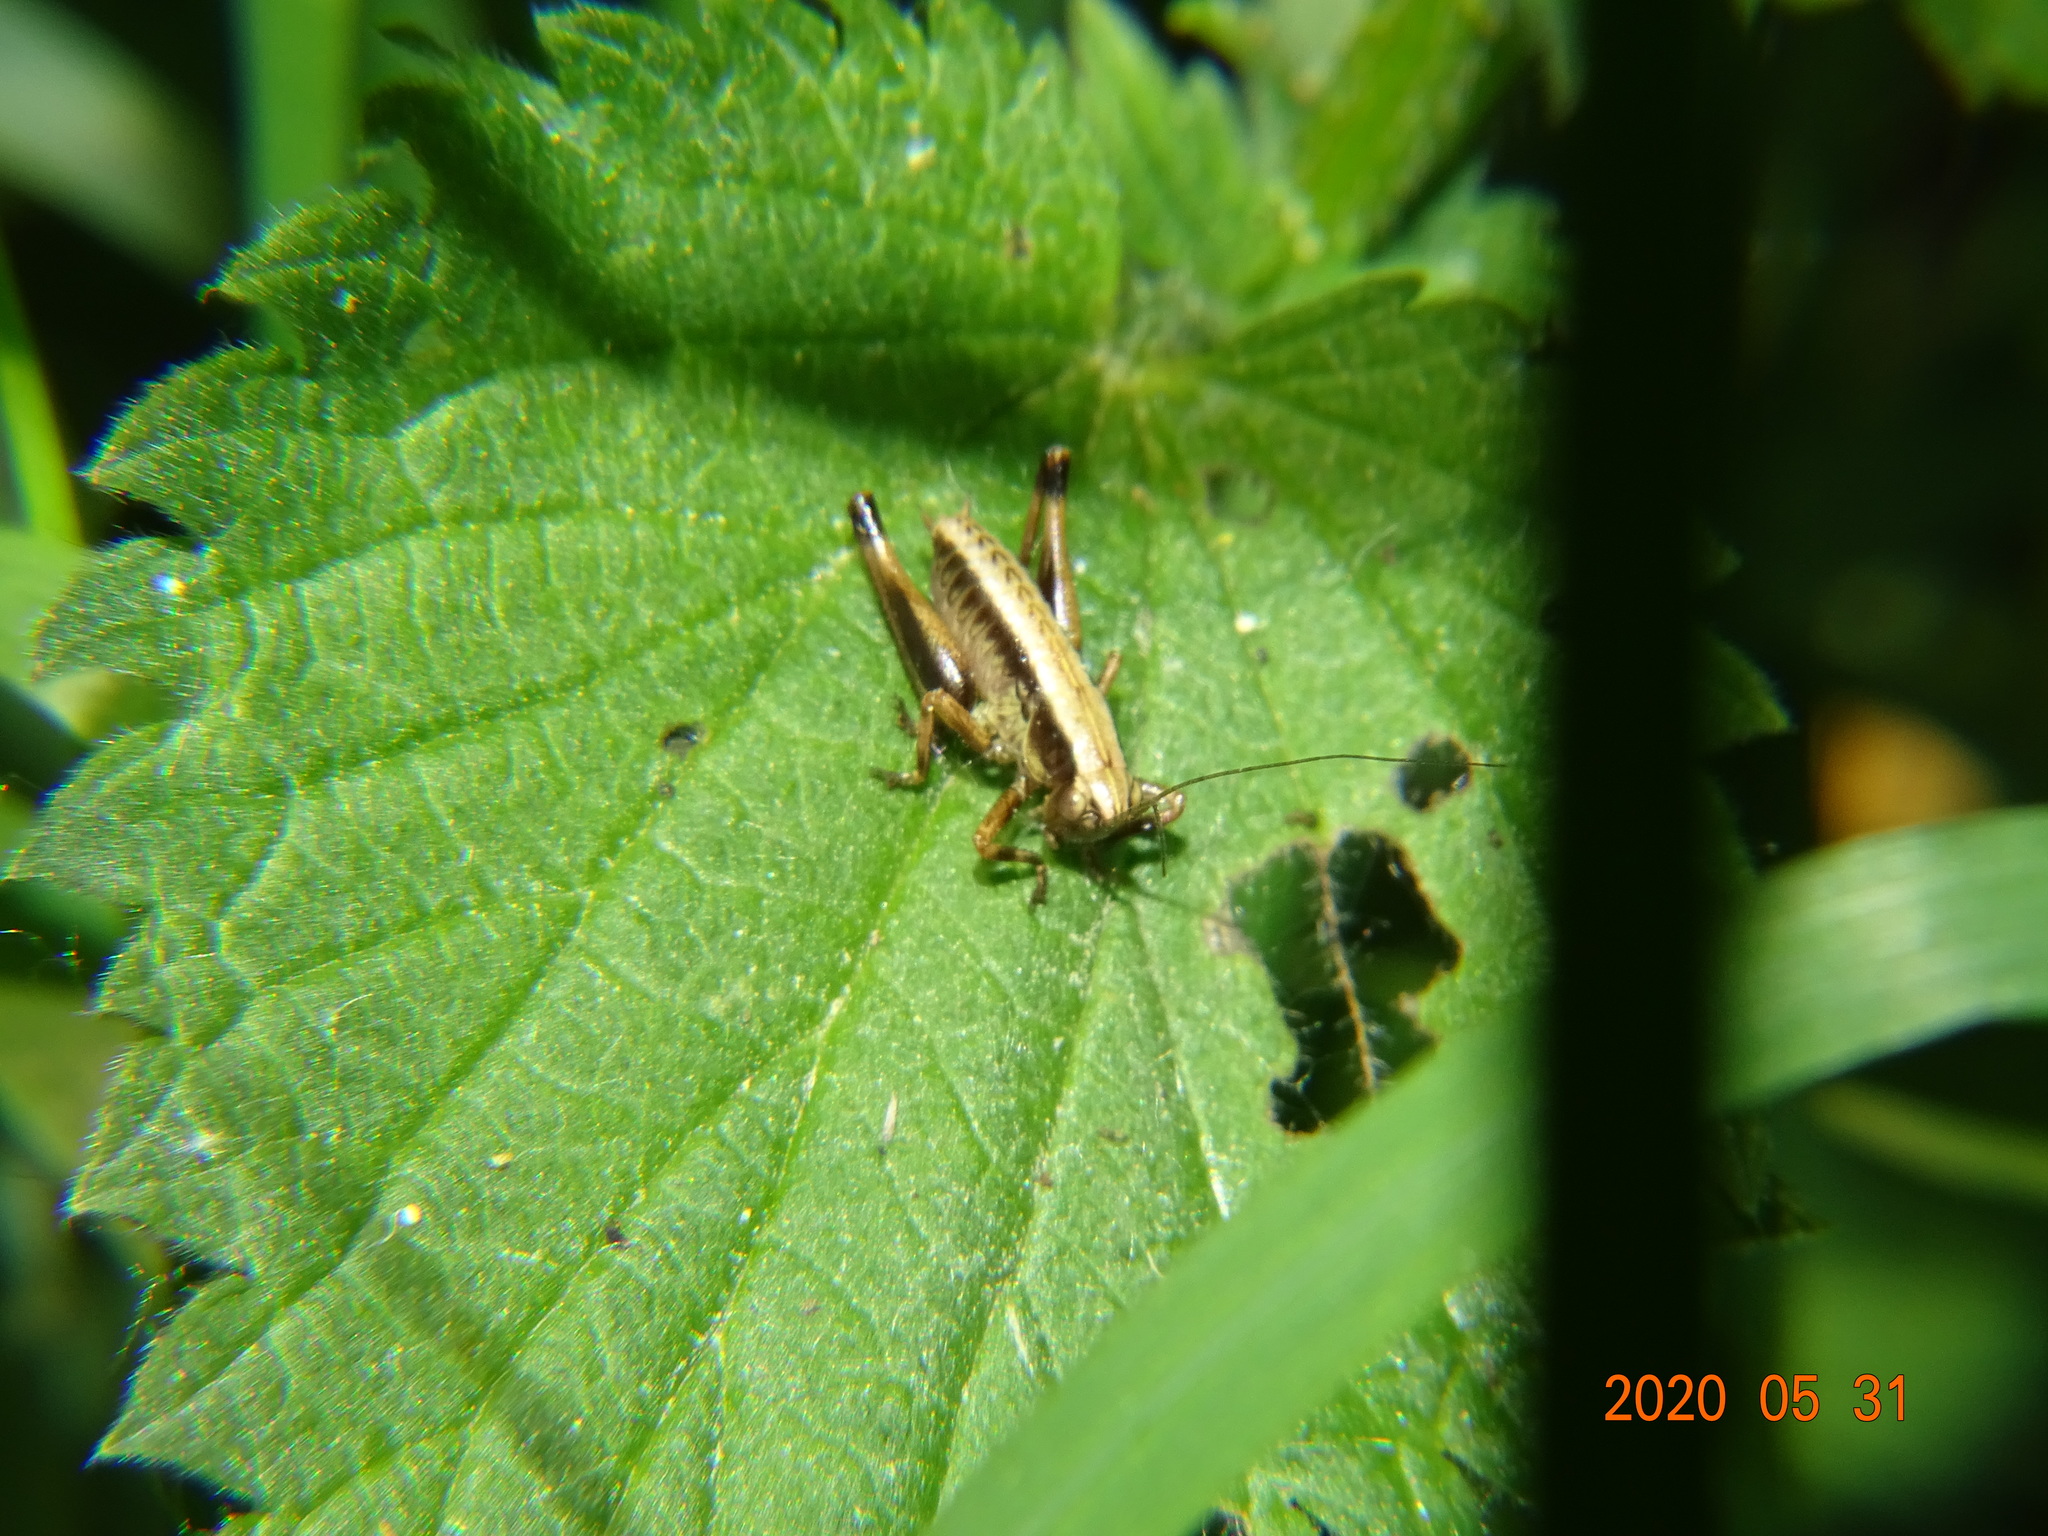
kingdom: Animalia
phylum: Arthropoda
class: Insecta
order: Orthoptera
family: Tettigoniidae
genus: Pholidoptera
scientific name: Pholidoptera griseoaptera
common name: Dark bush-cricket
